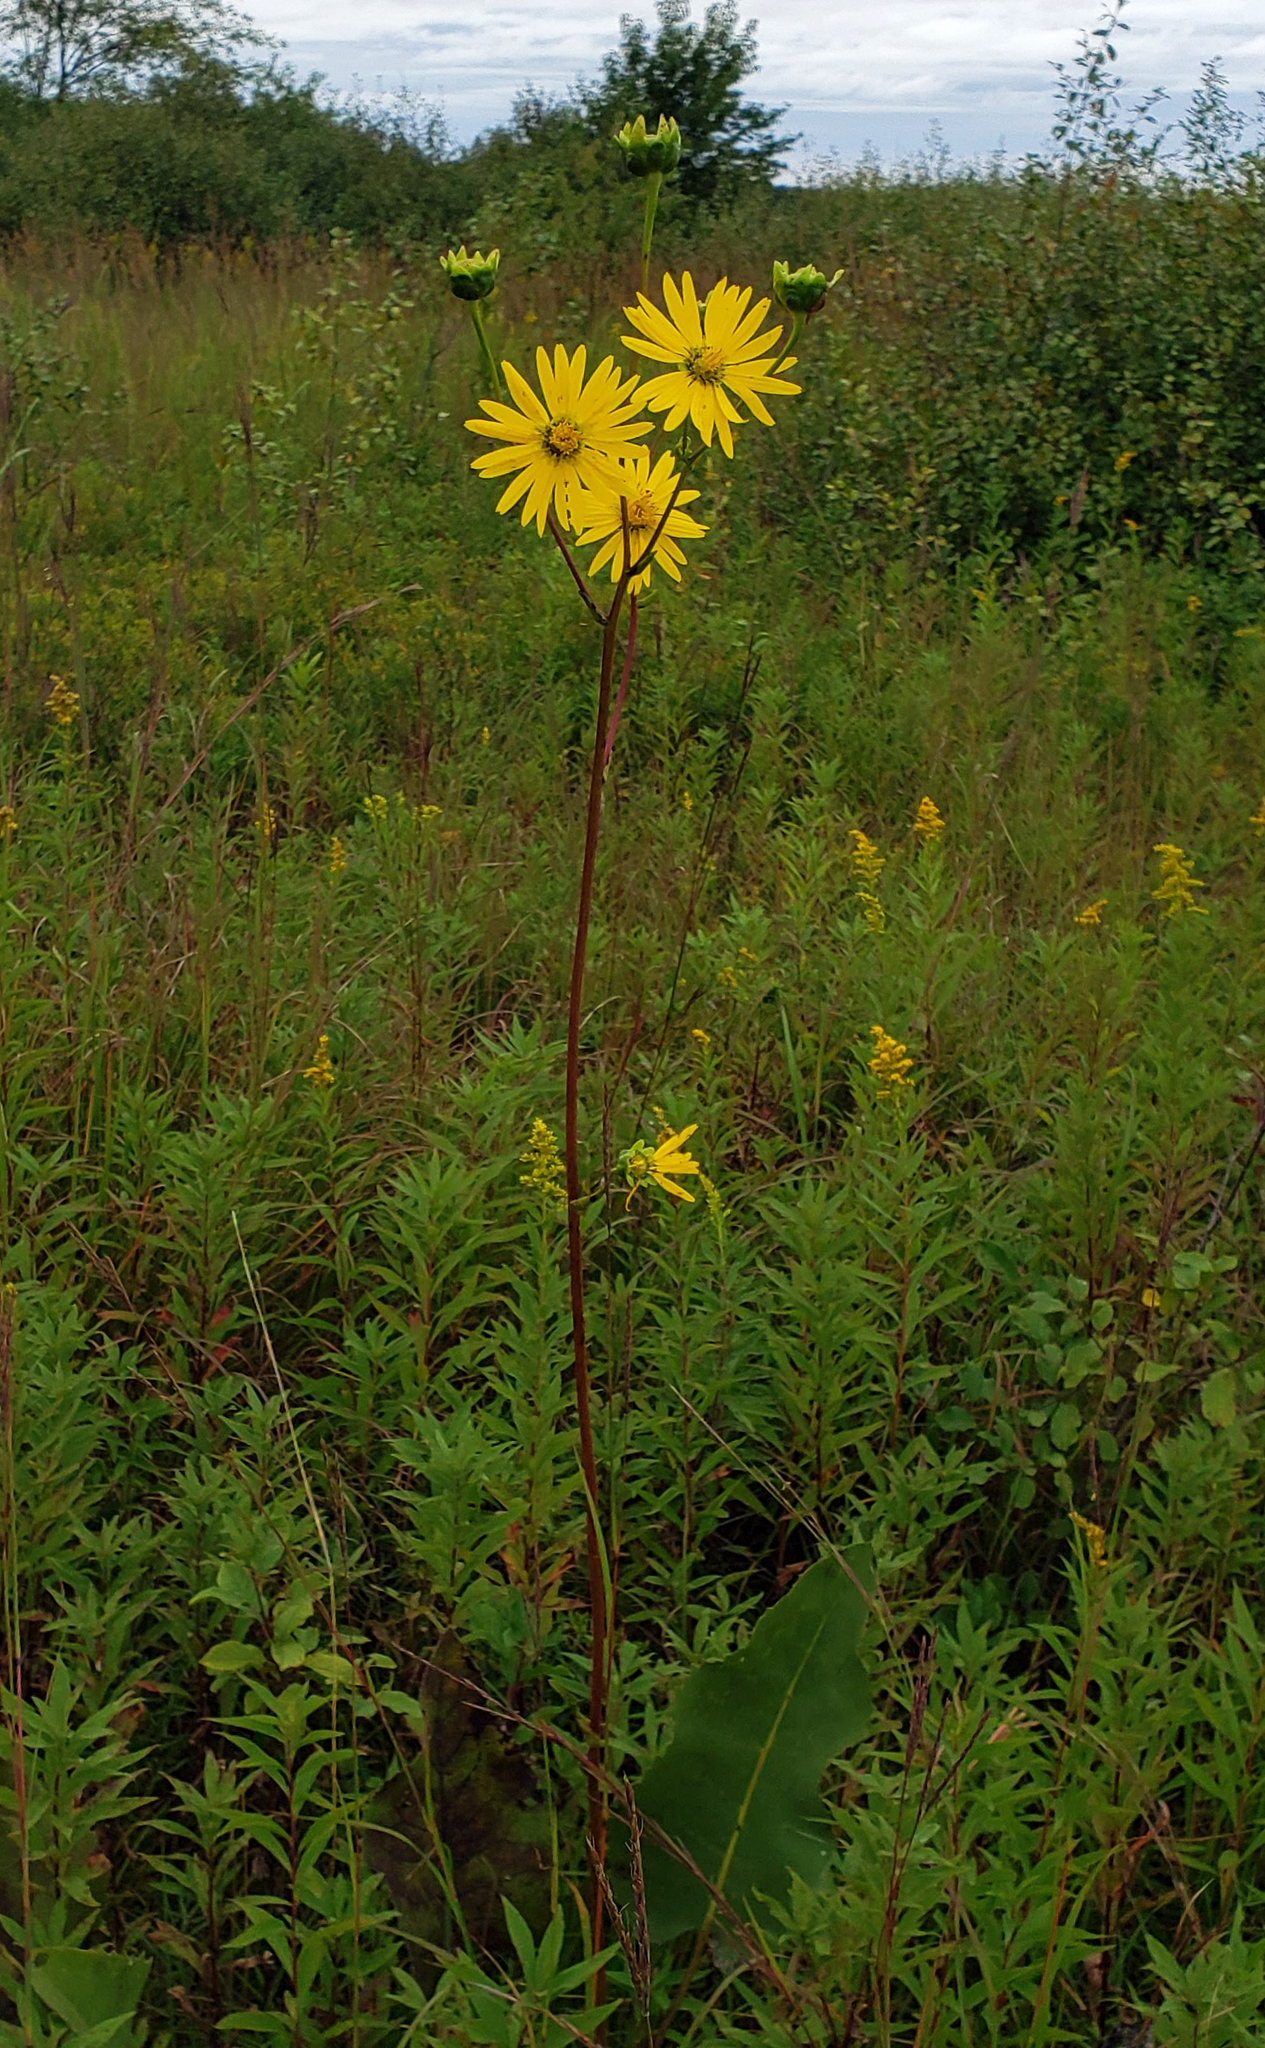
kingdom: Plantae
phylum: Tracheophyta
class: Magnoliopsida
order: Asterales
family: Asteraceae
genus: Silphium
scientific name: Silphium terebinthinaceum
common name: Basal-leaf rosinweed
